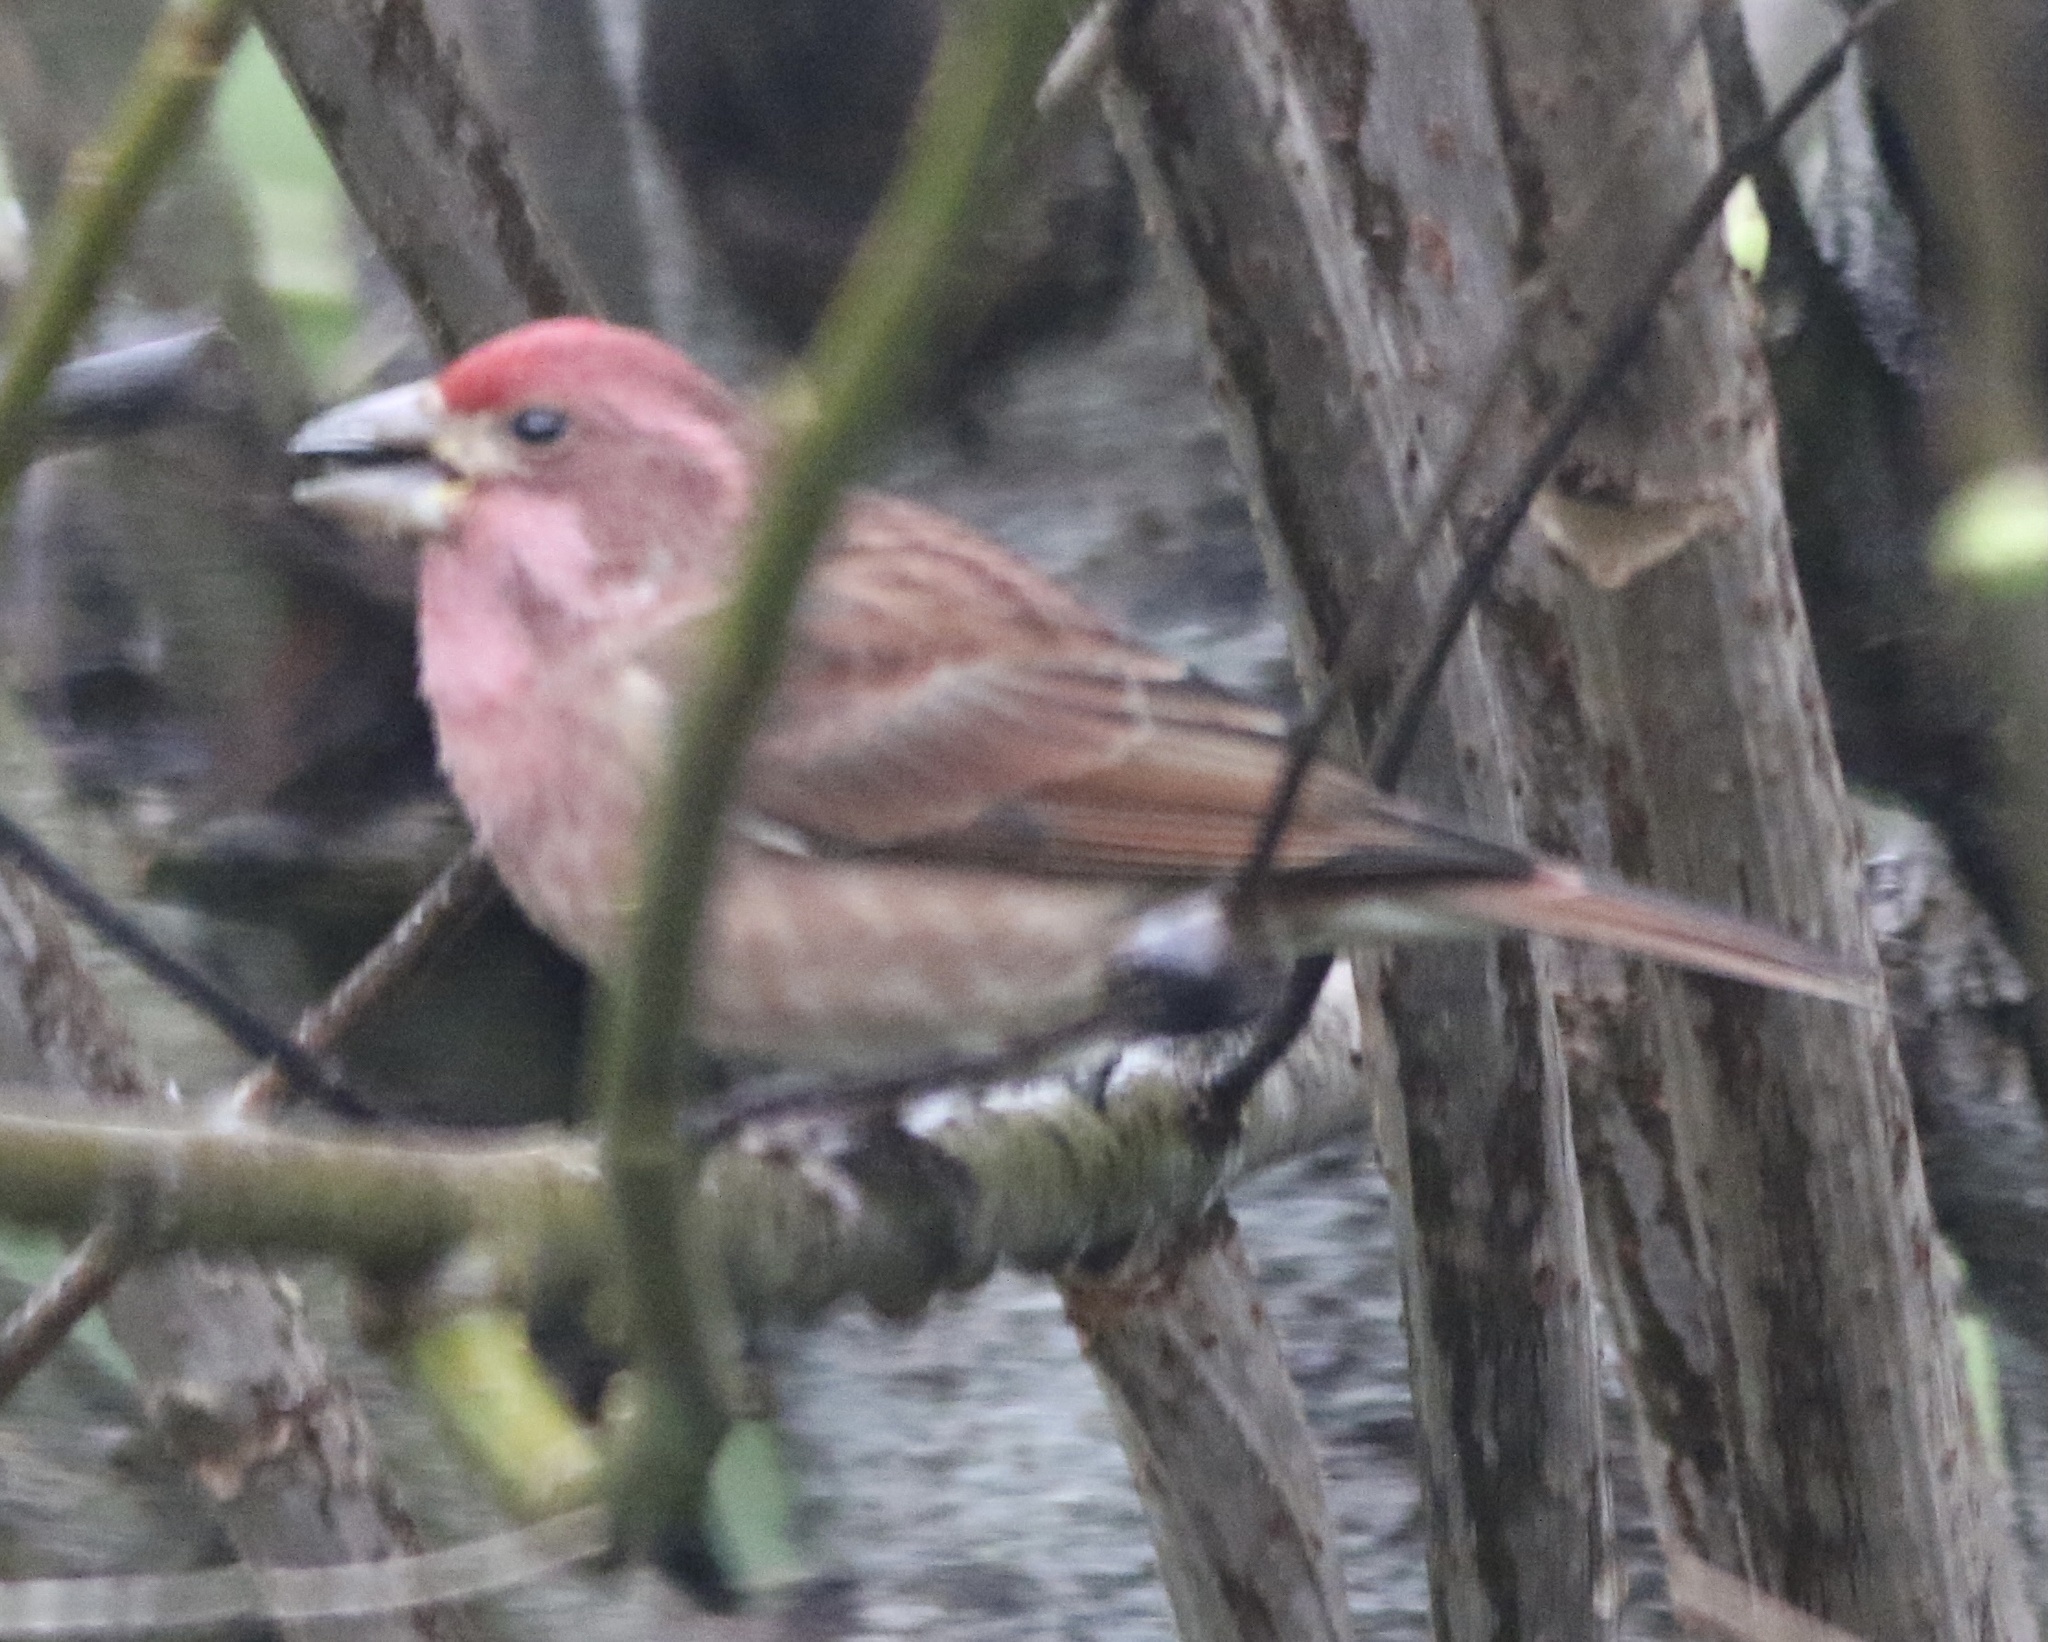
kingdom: Animalia
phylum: Chordata
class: Aves
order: Passeriformes
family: Fringillidae
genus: Haemorhous
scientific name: Haemorhous purpureus
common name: Purple finch
